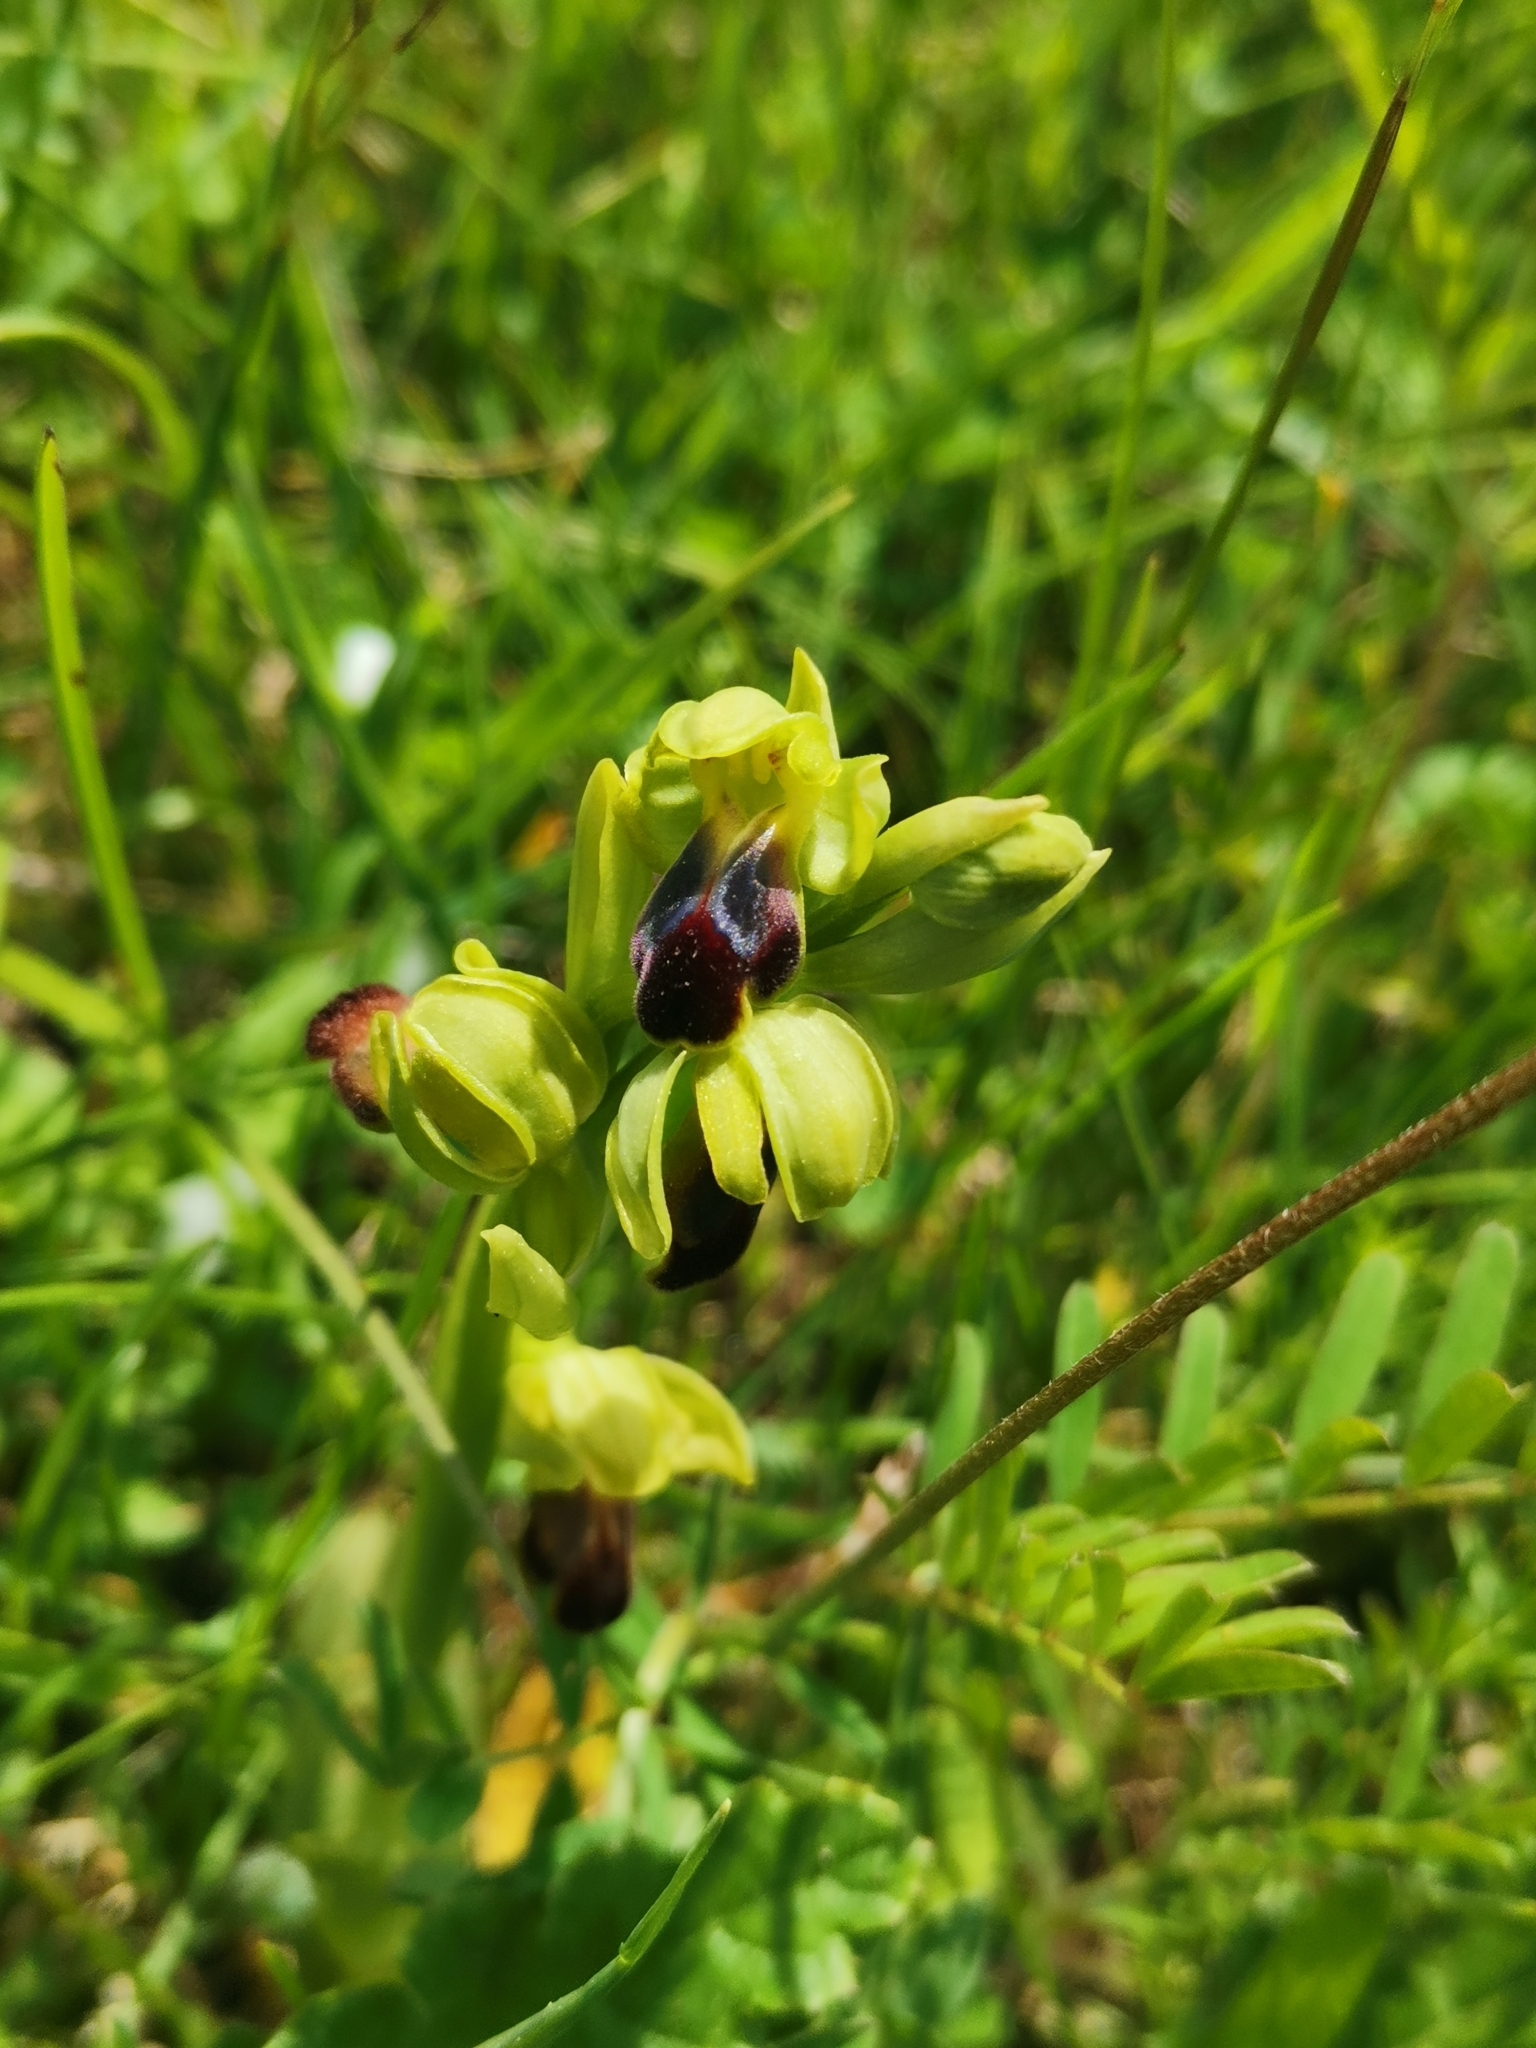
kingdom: Plantae
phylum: Tracheophyta
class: Liliopsida
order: Asparagales
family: Orchidaceae
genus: Ophrys
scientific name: Ophrys fusca
